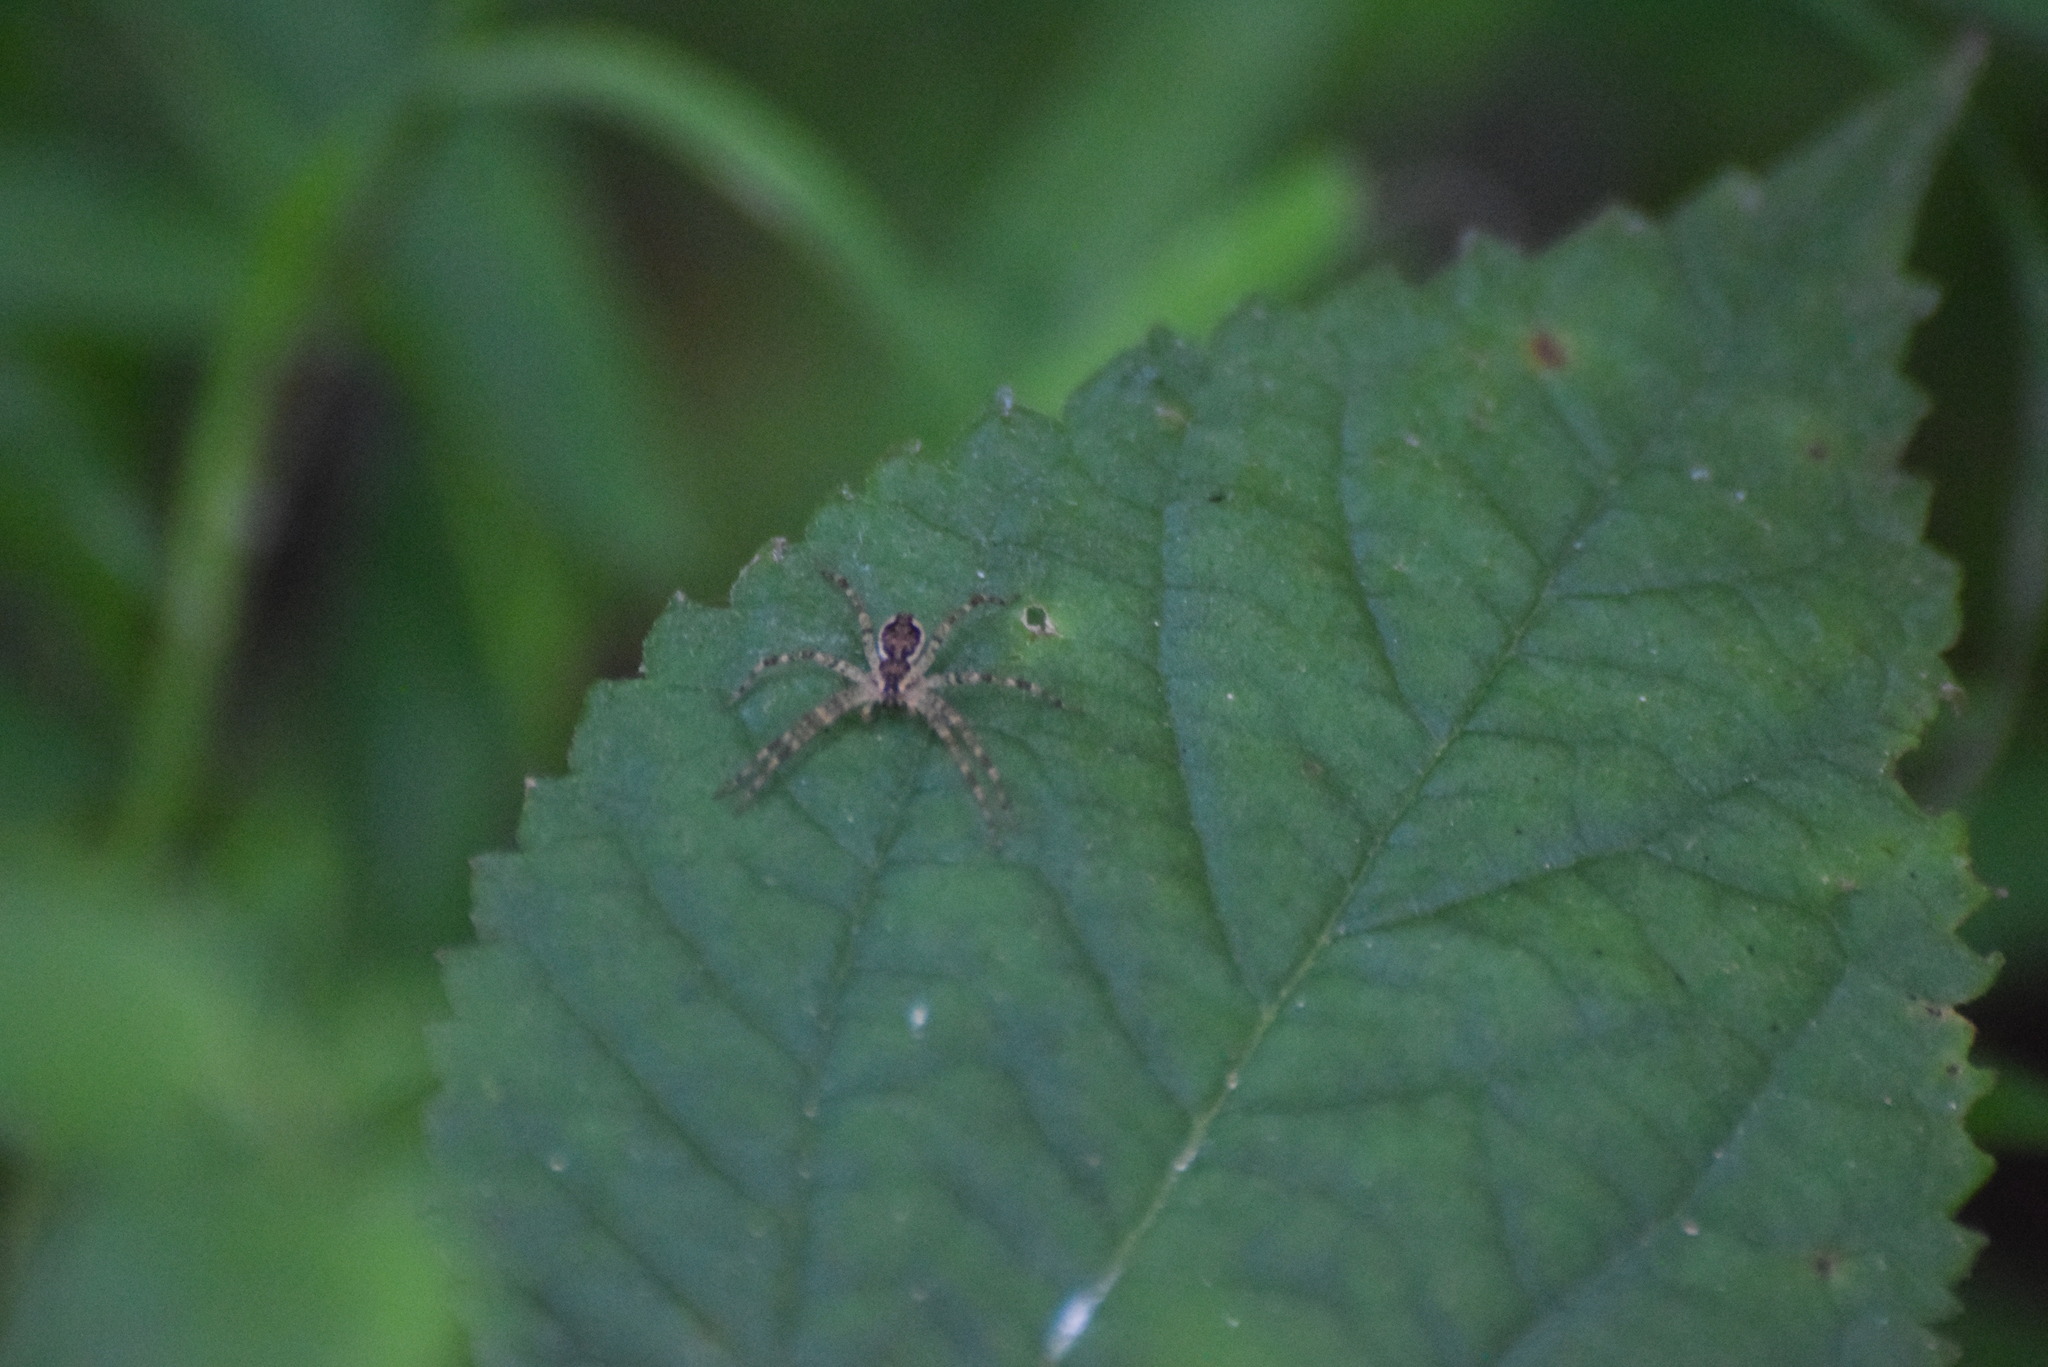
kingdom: Animalia
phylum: Arthropoda
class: Arachnida
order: Araneae
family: Pisauridae
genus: Dolomedes
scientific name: Dolomedes tenebrosus
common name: Dark fishing spider
